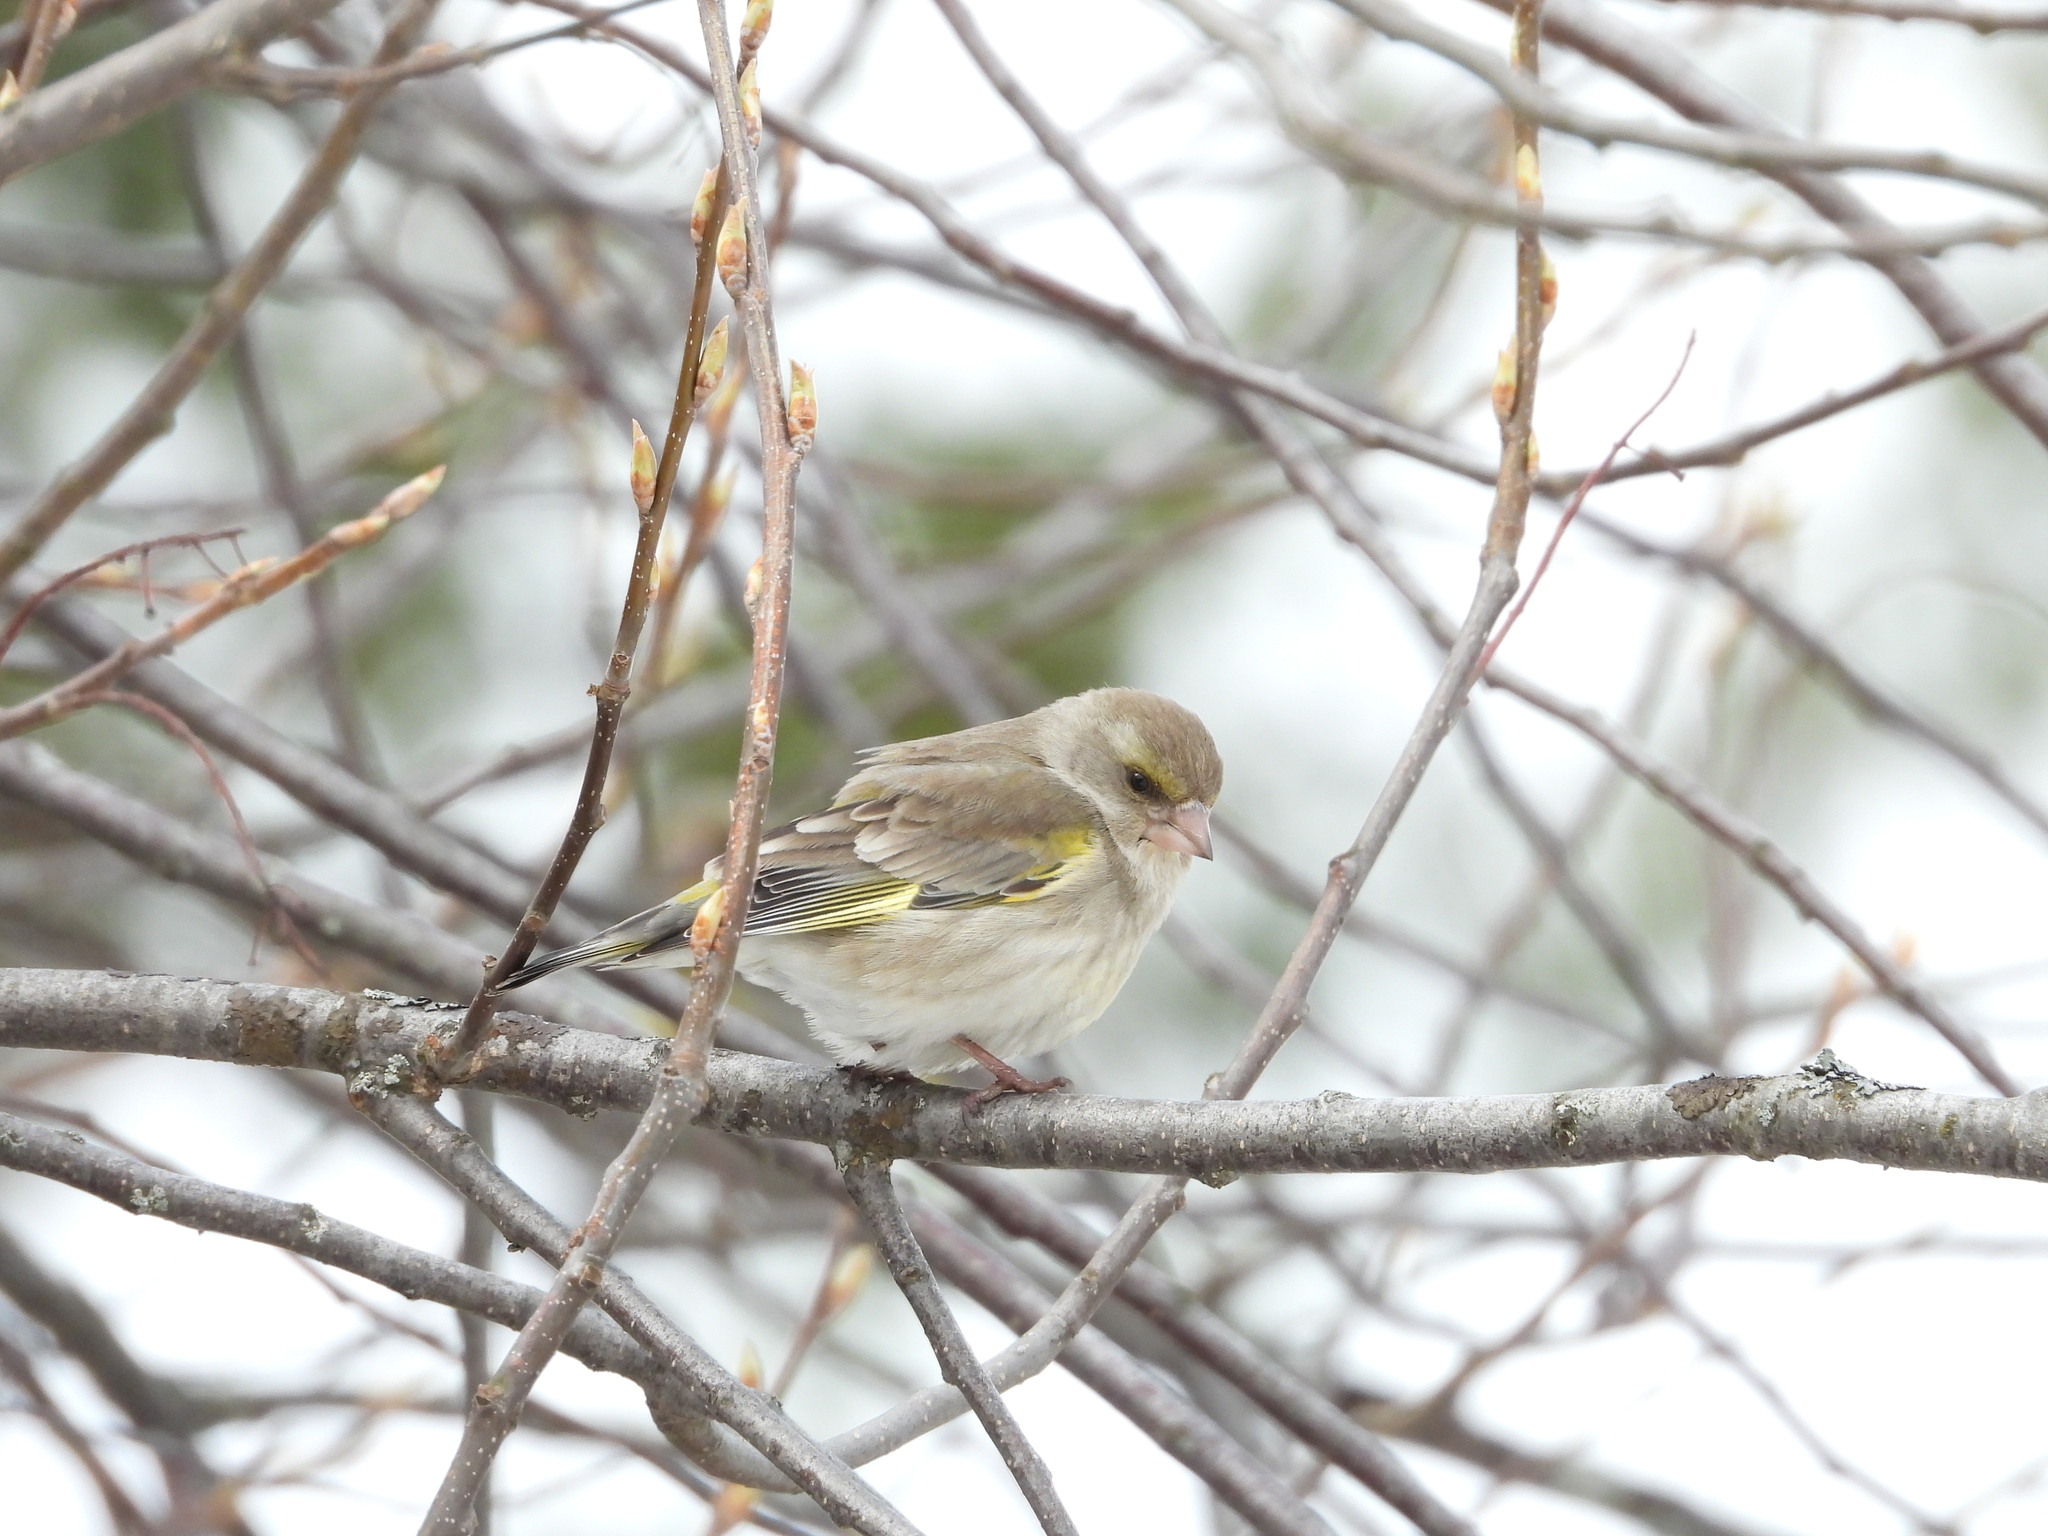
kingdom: Plantae
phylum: Tracheophyta
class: Liliopsida
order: Poales
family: Poaceae
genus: Chloris
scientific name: Chloris chloris
